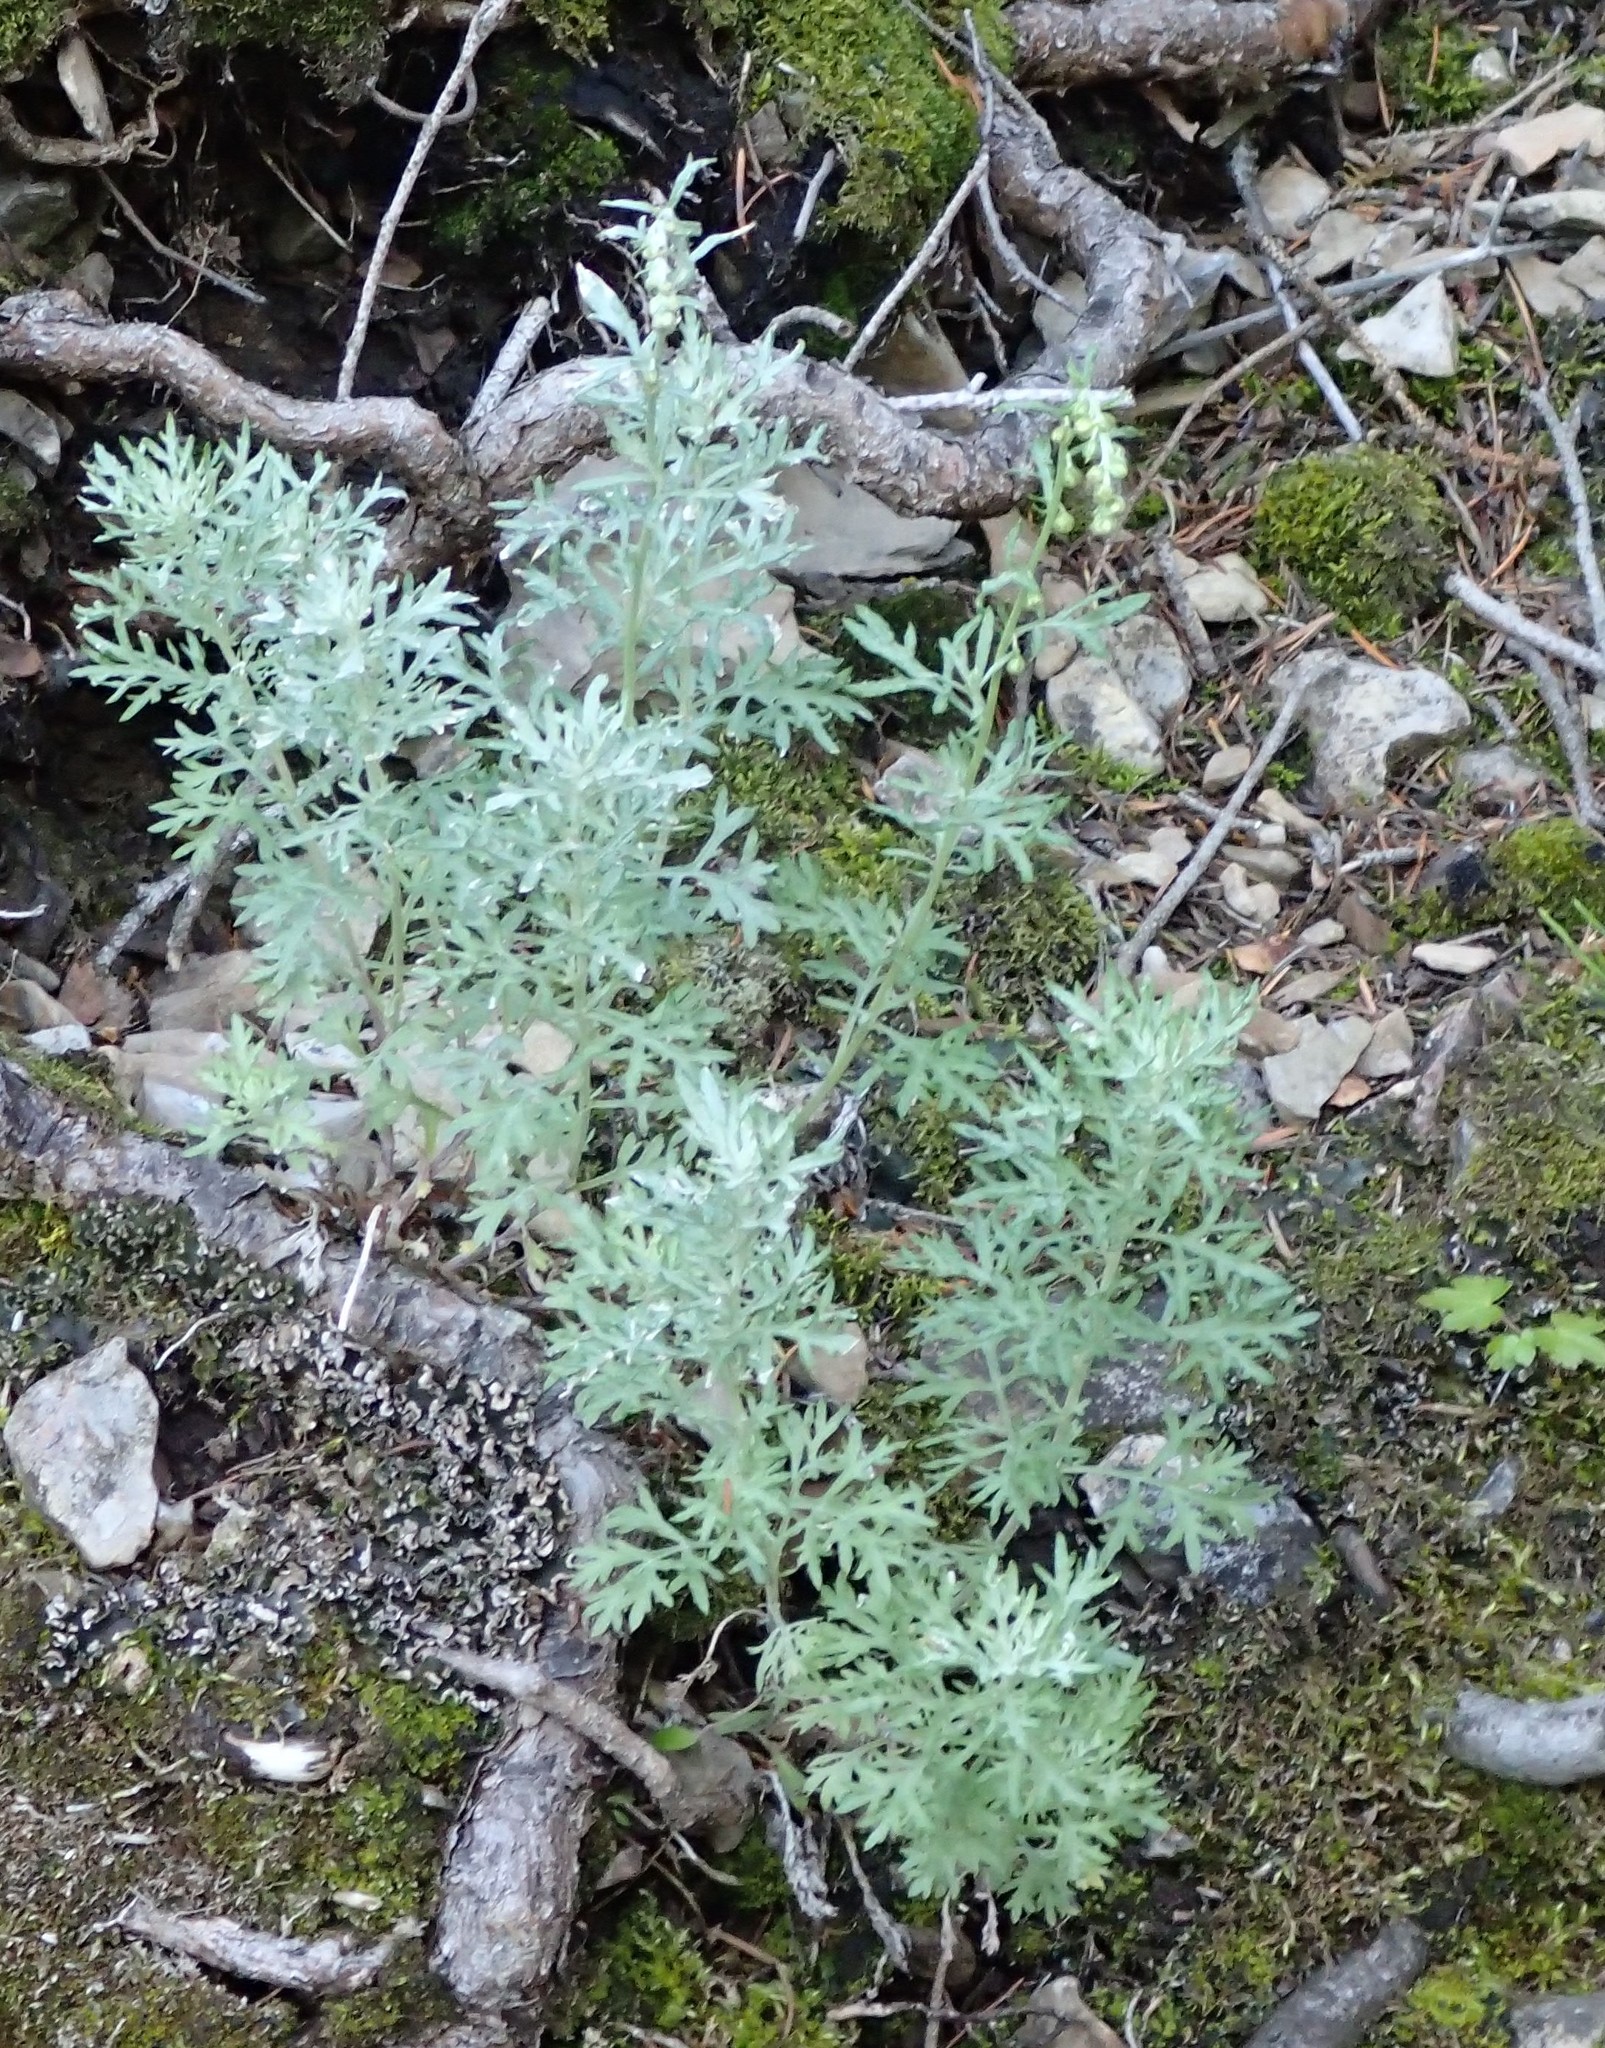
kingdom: Plantae
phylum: Tracheophyta
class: Magnoliopsida
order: Asterales
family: Asteraceae
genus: Artemisia
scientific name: Artemisia frigida
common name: Prairie sagewort
